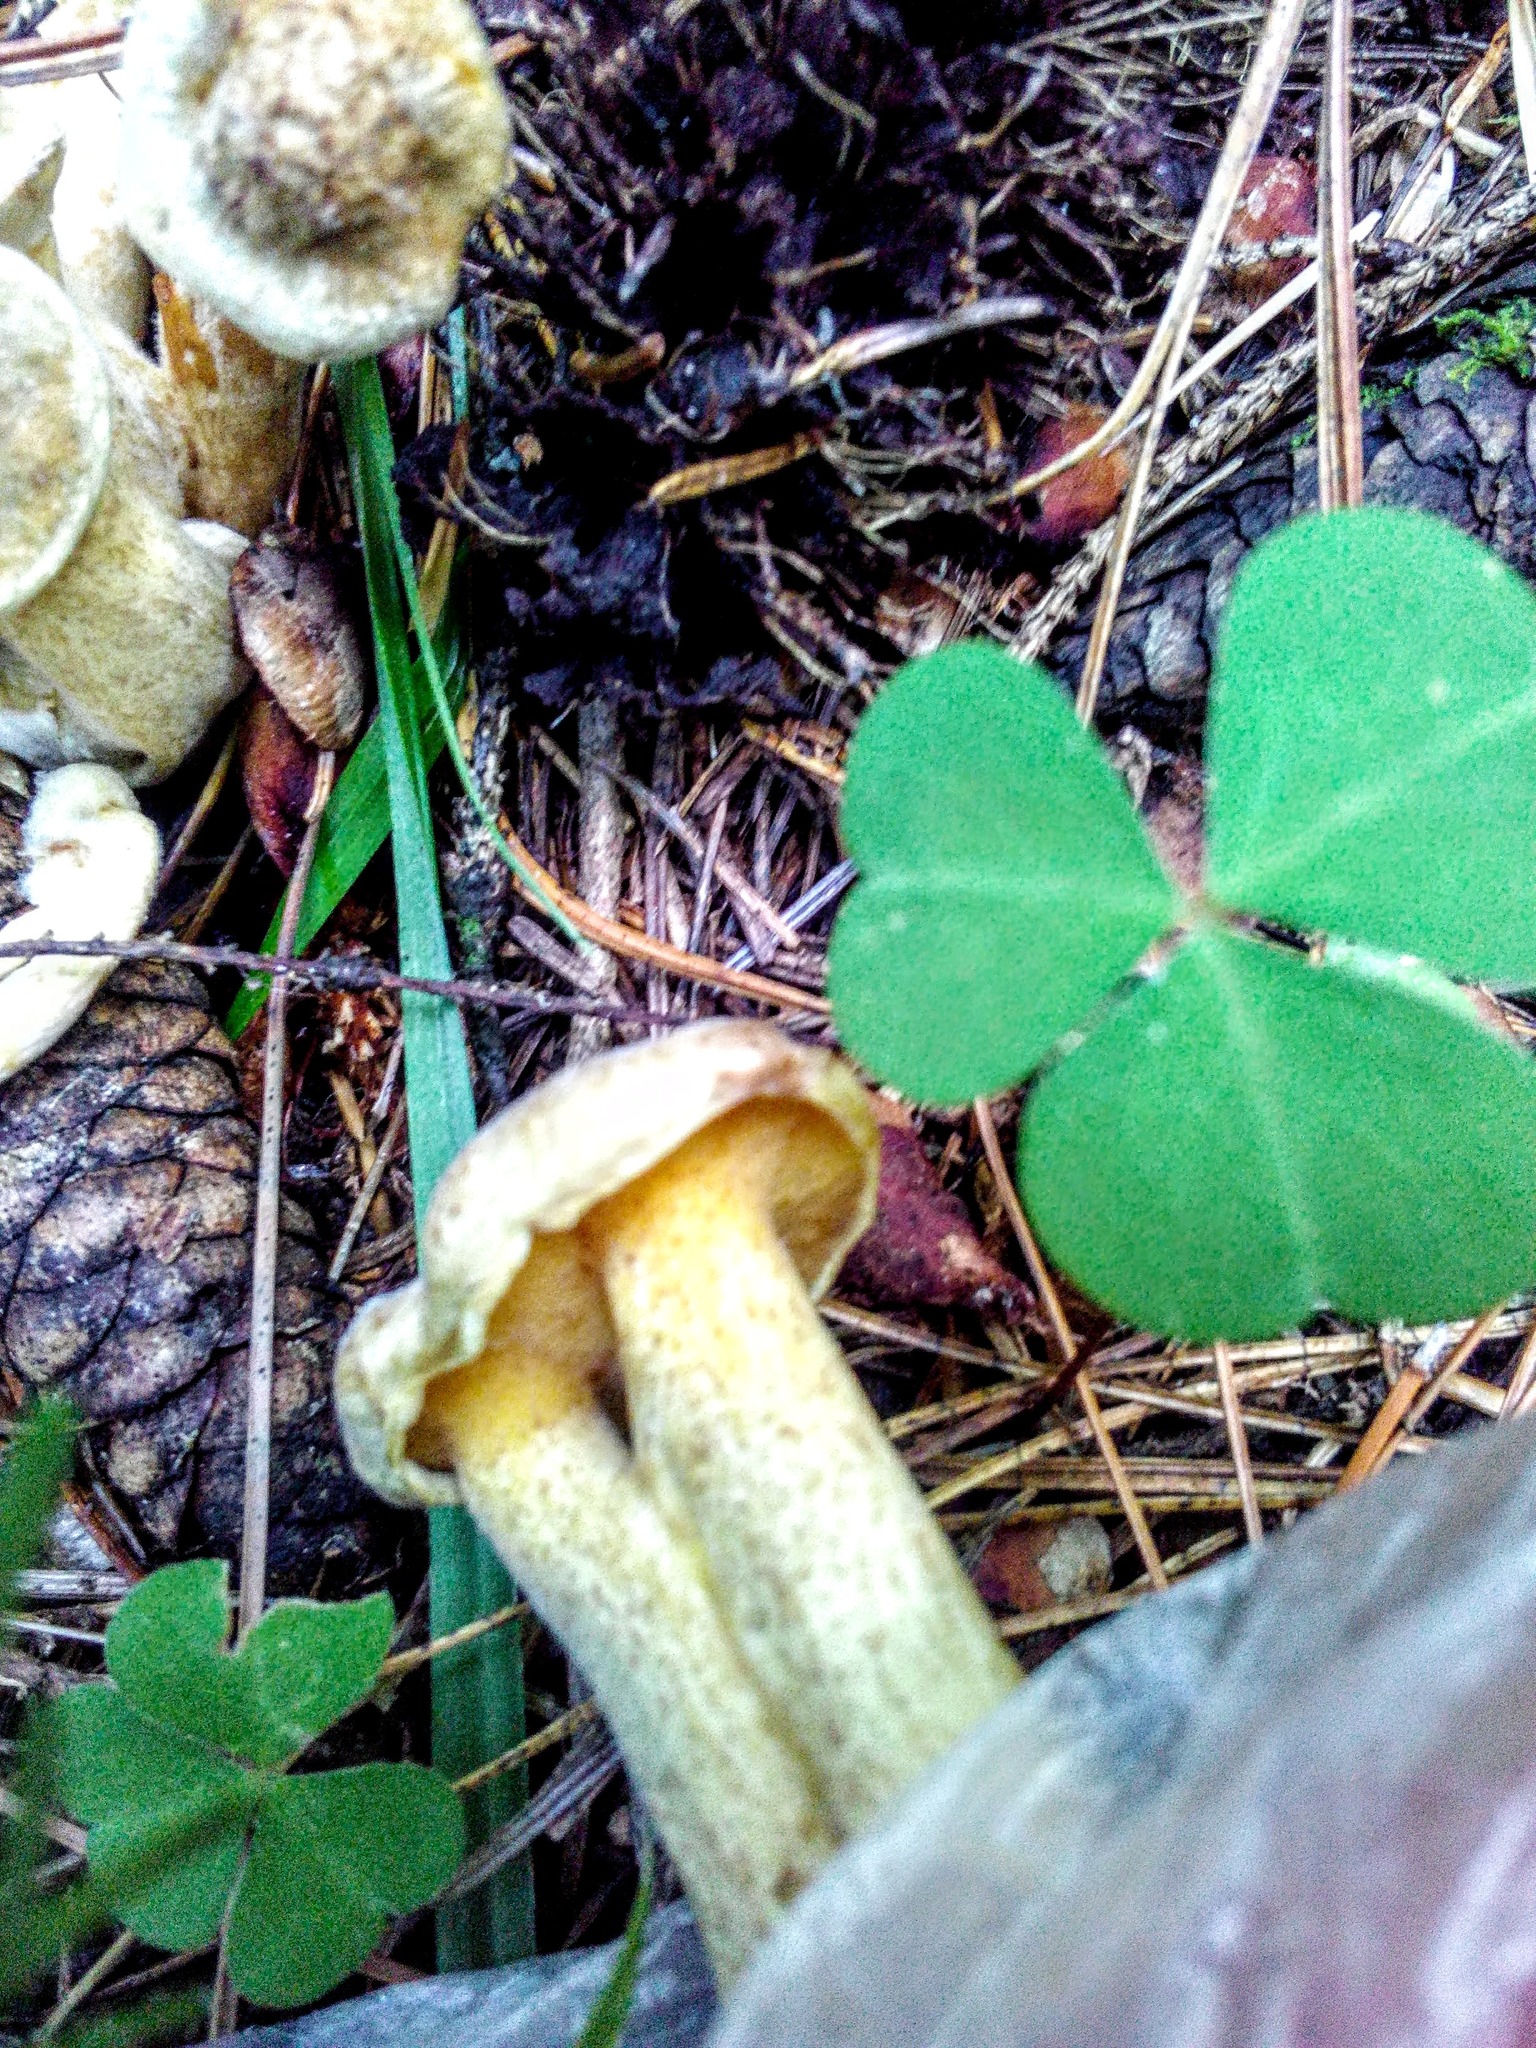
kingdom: Fungi
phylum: Basidiomycota
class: Agaricomycetes
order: Boletales
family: Suillaceae
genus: Suillus
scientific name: Suillus americanus
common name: Chicken fat mushroom
